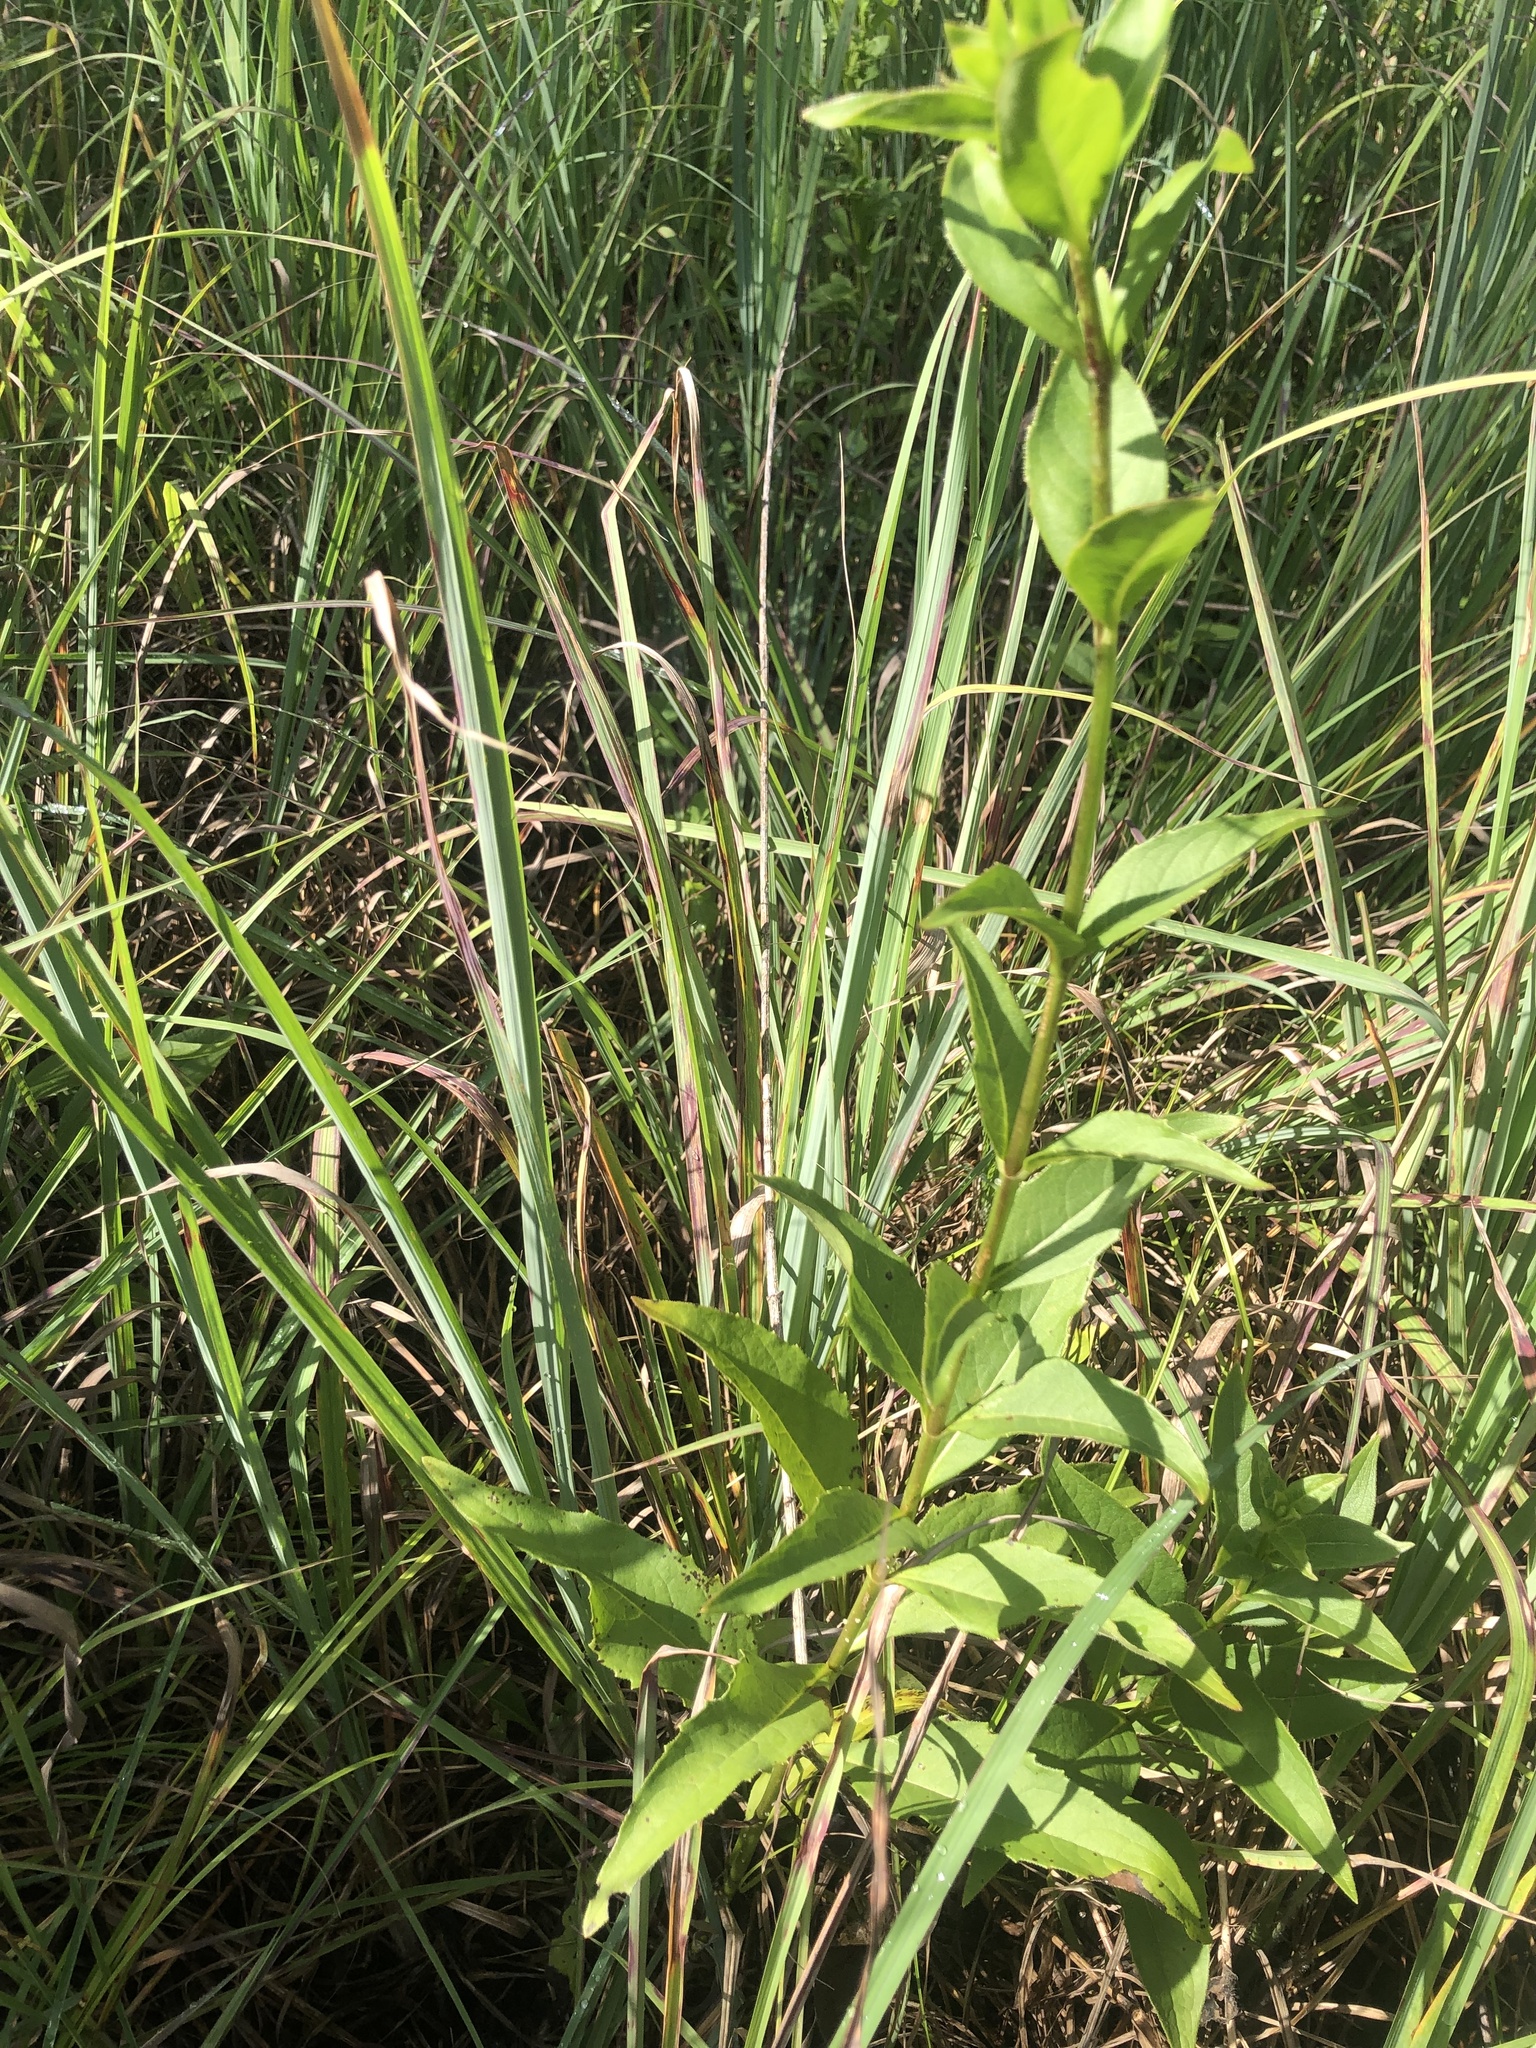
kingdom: Plantae
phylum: Tracheophyta
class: Magnoliopsida
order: Asterales
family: Asteraceae
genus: Silphium
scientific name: Silphium asteriscus
